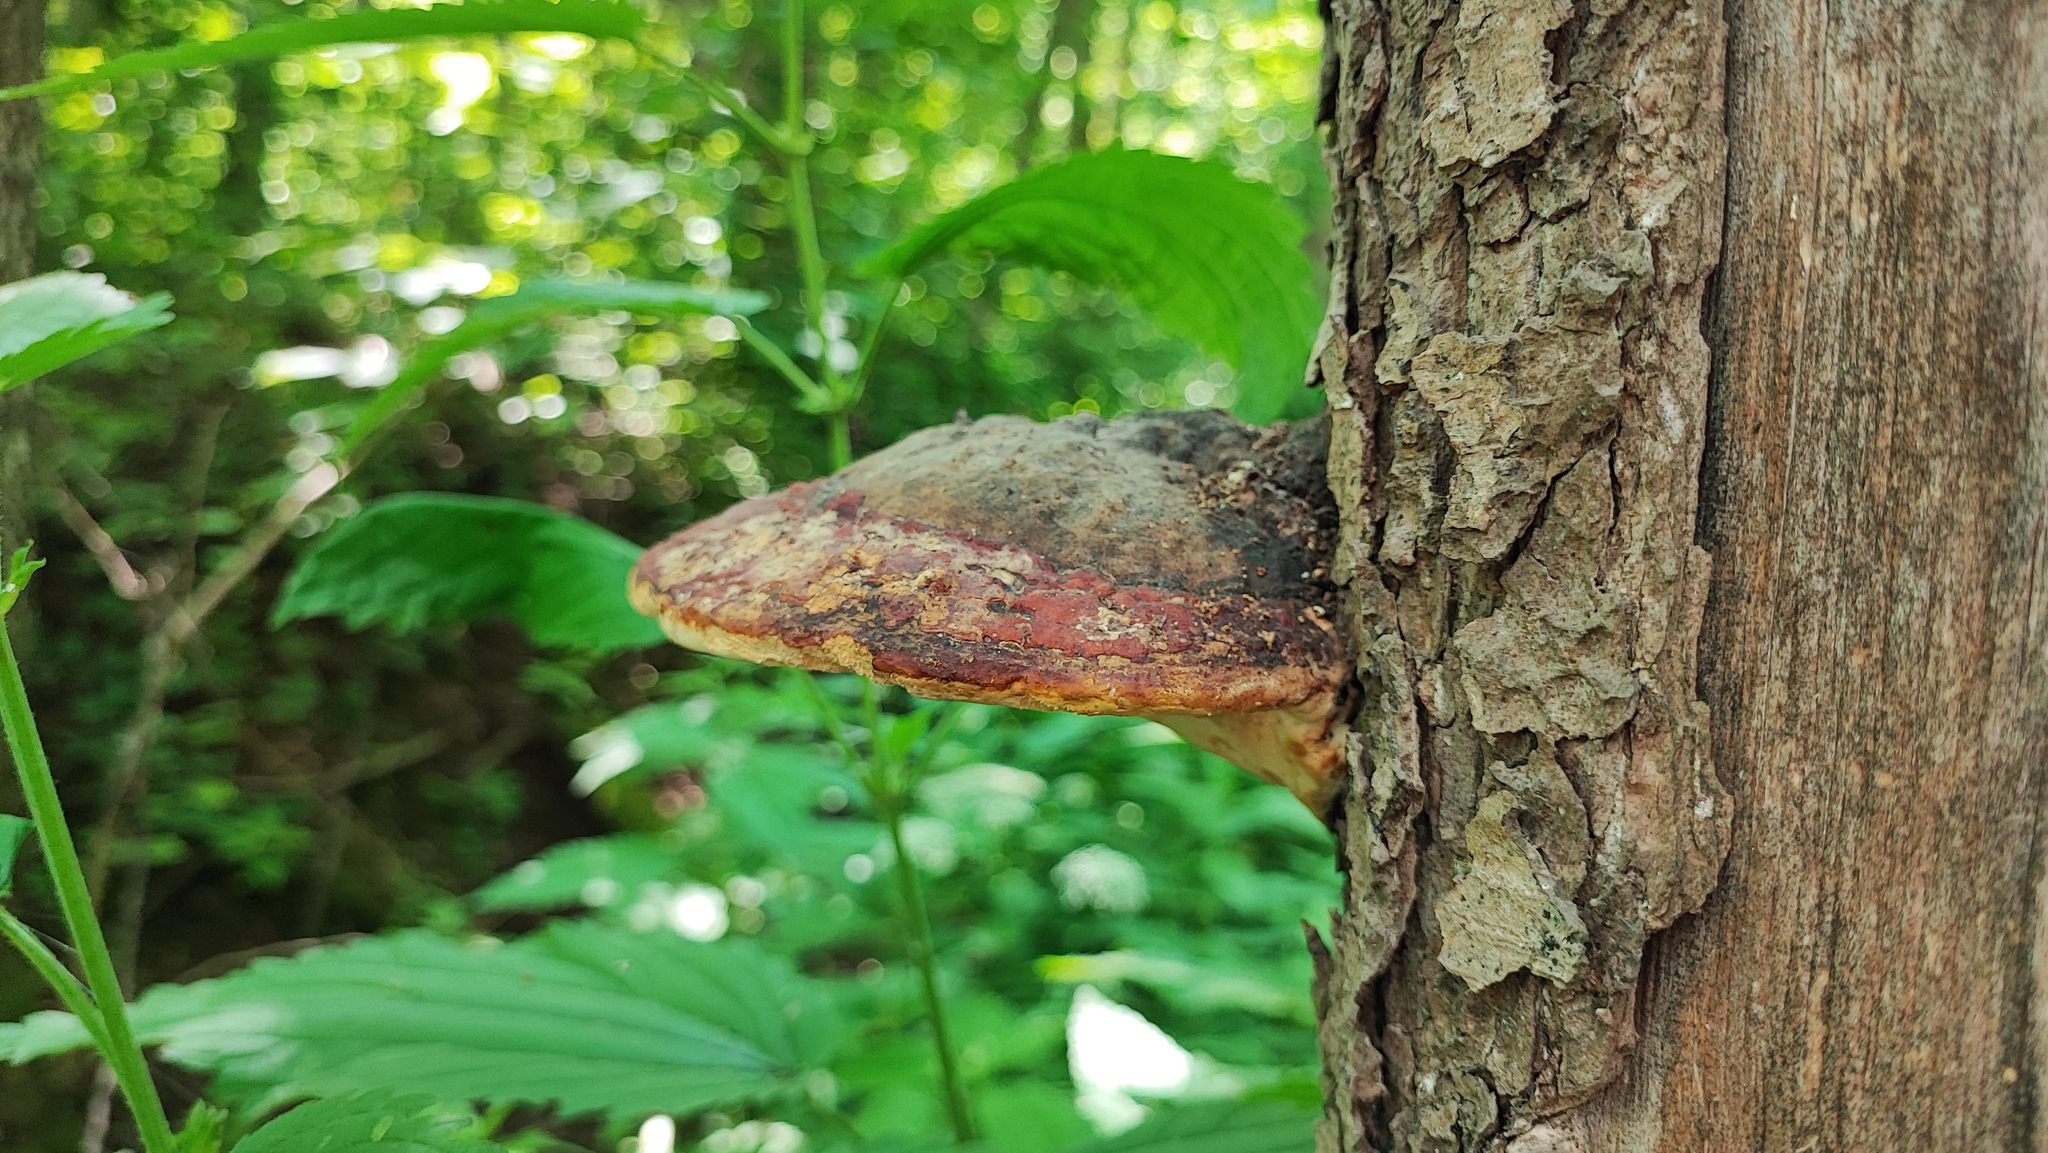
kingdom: Fungi
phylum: Basidiomycota
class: Agaricomycetes
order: Polyporales
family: Fomitopsidaceae
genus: Fomitopsis
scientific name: Fomitopsis pinicola
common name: Red-belted bracket
